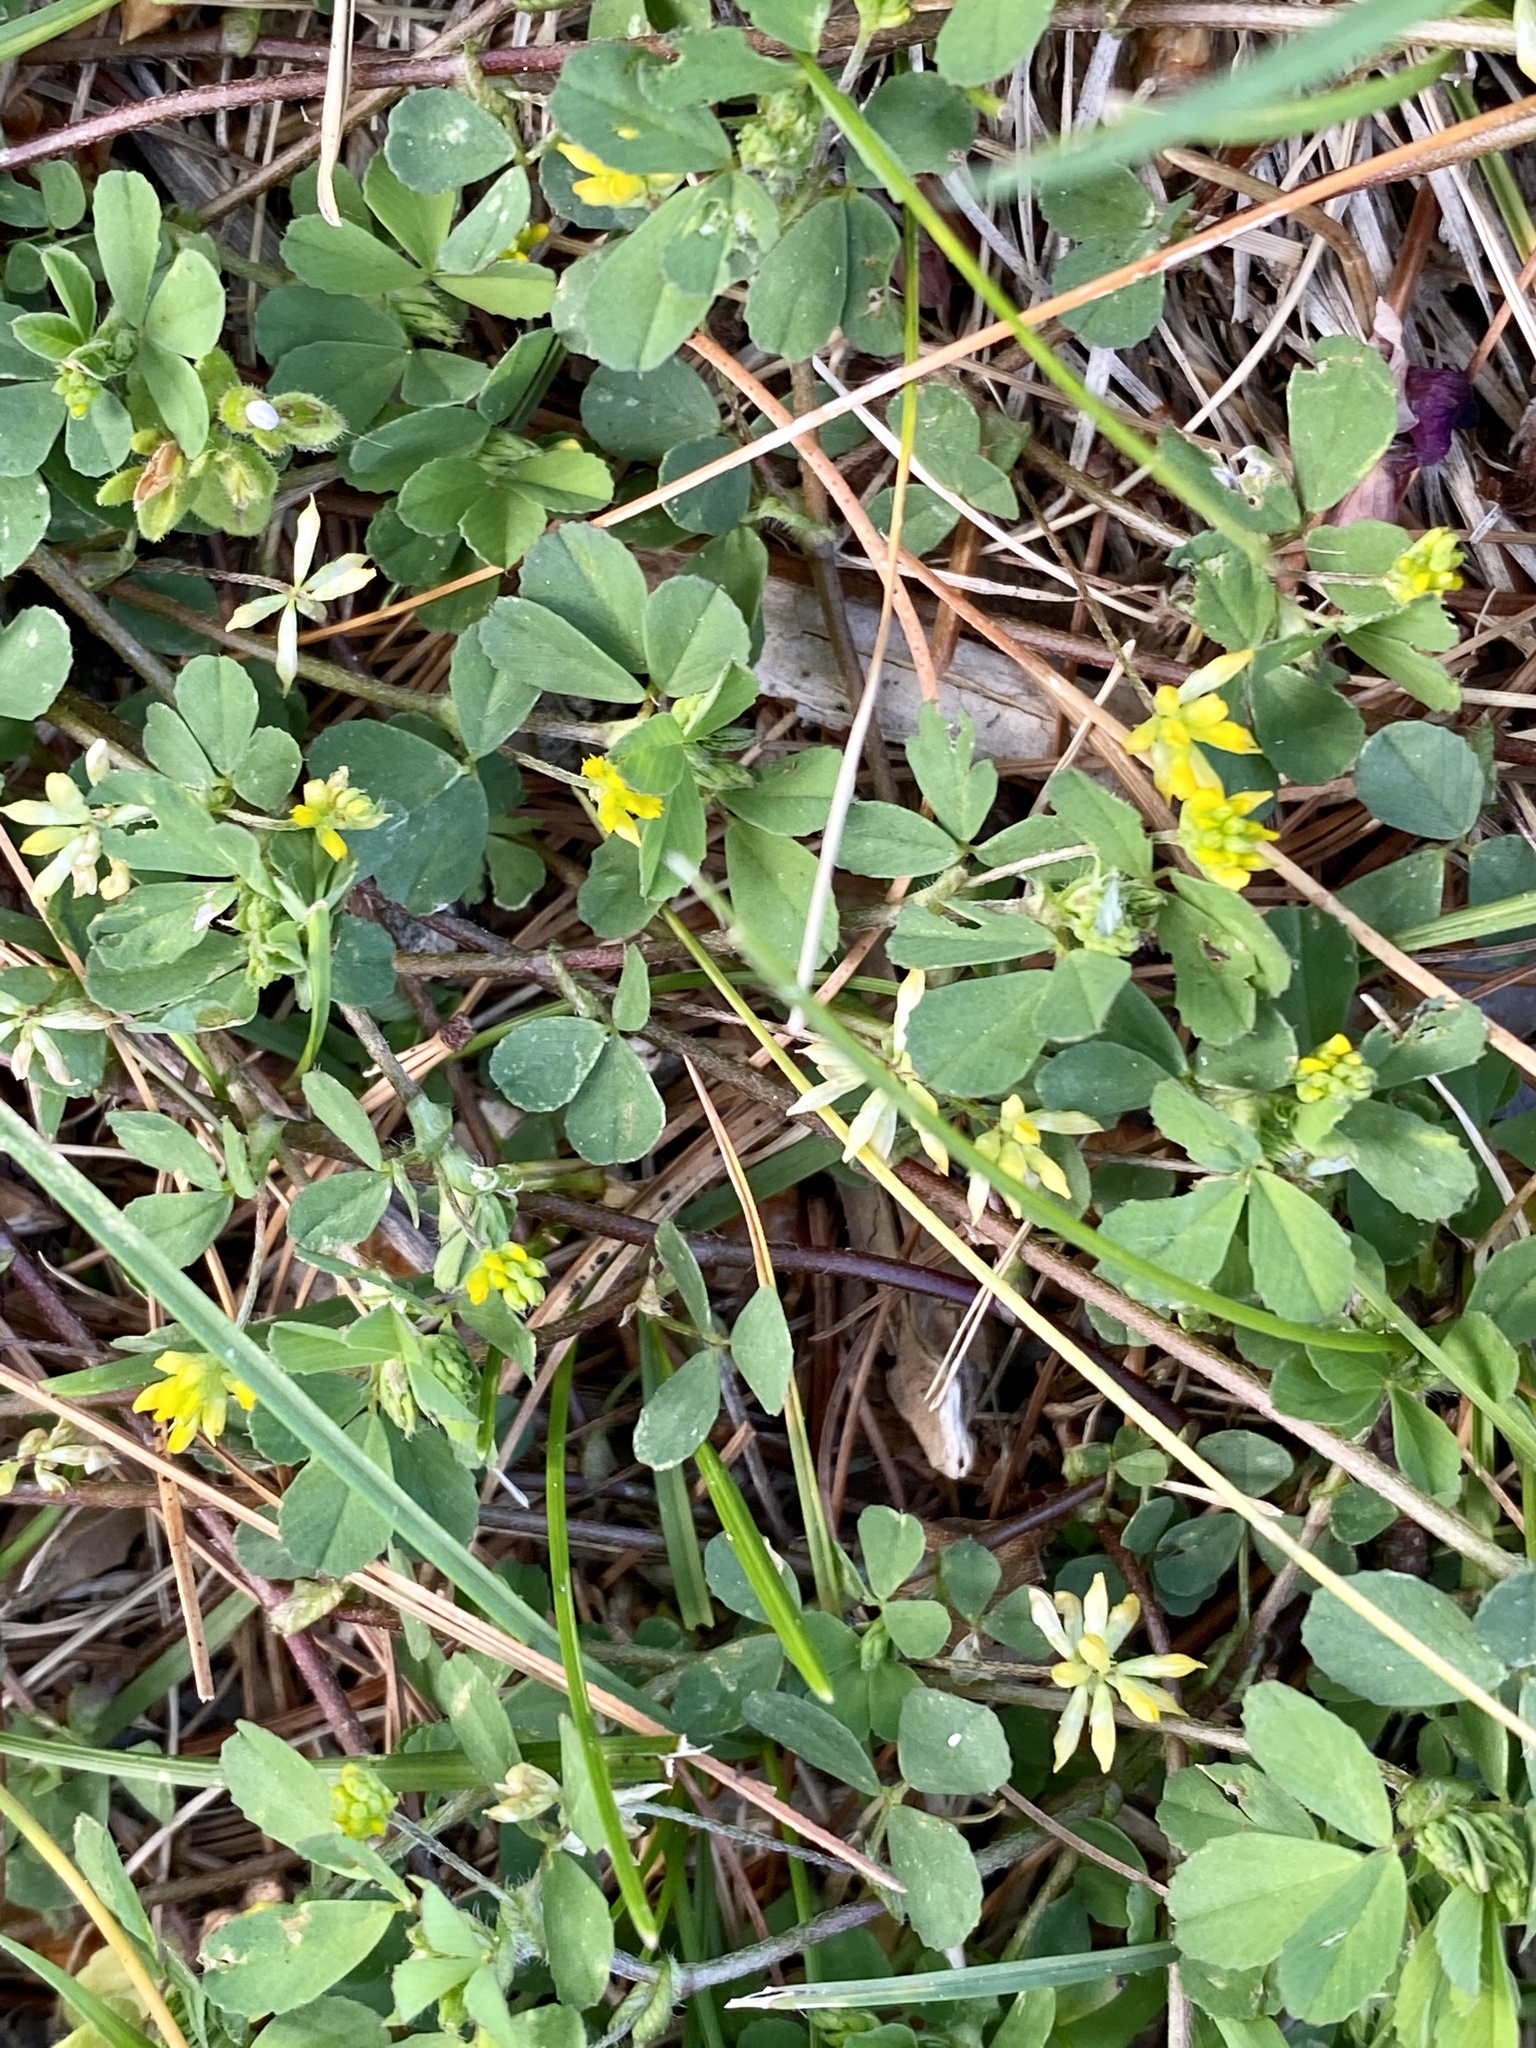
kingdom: Plantae
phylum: Tracheophyta
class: Magnoliopsida
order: Fabales
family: Fabaceae
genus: Trifolium
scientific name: Trifolium dubium
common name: Suckling clover
